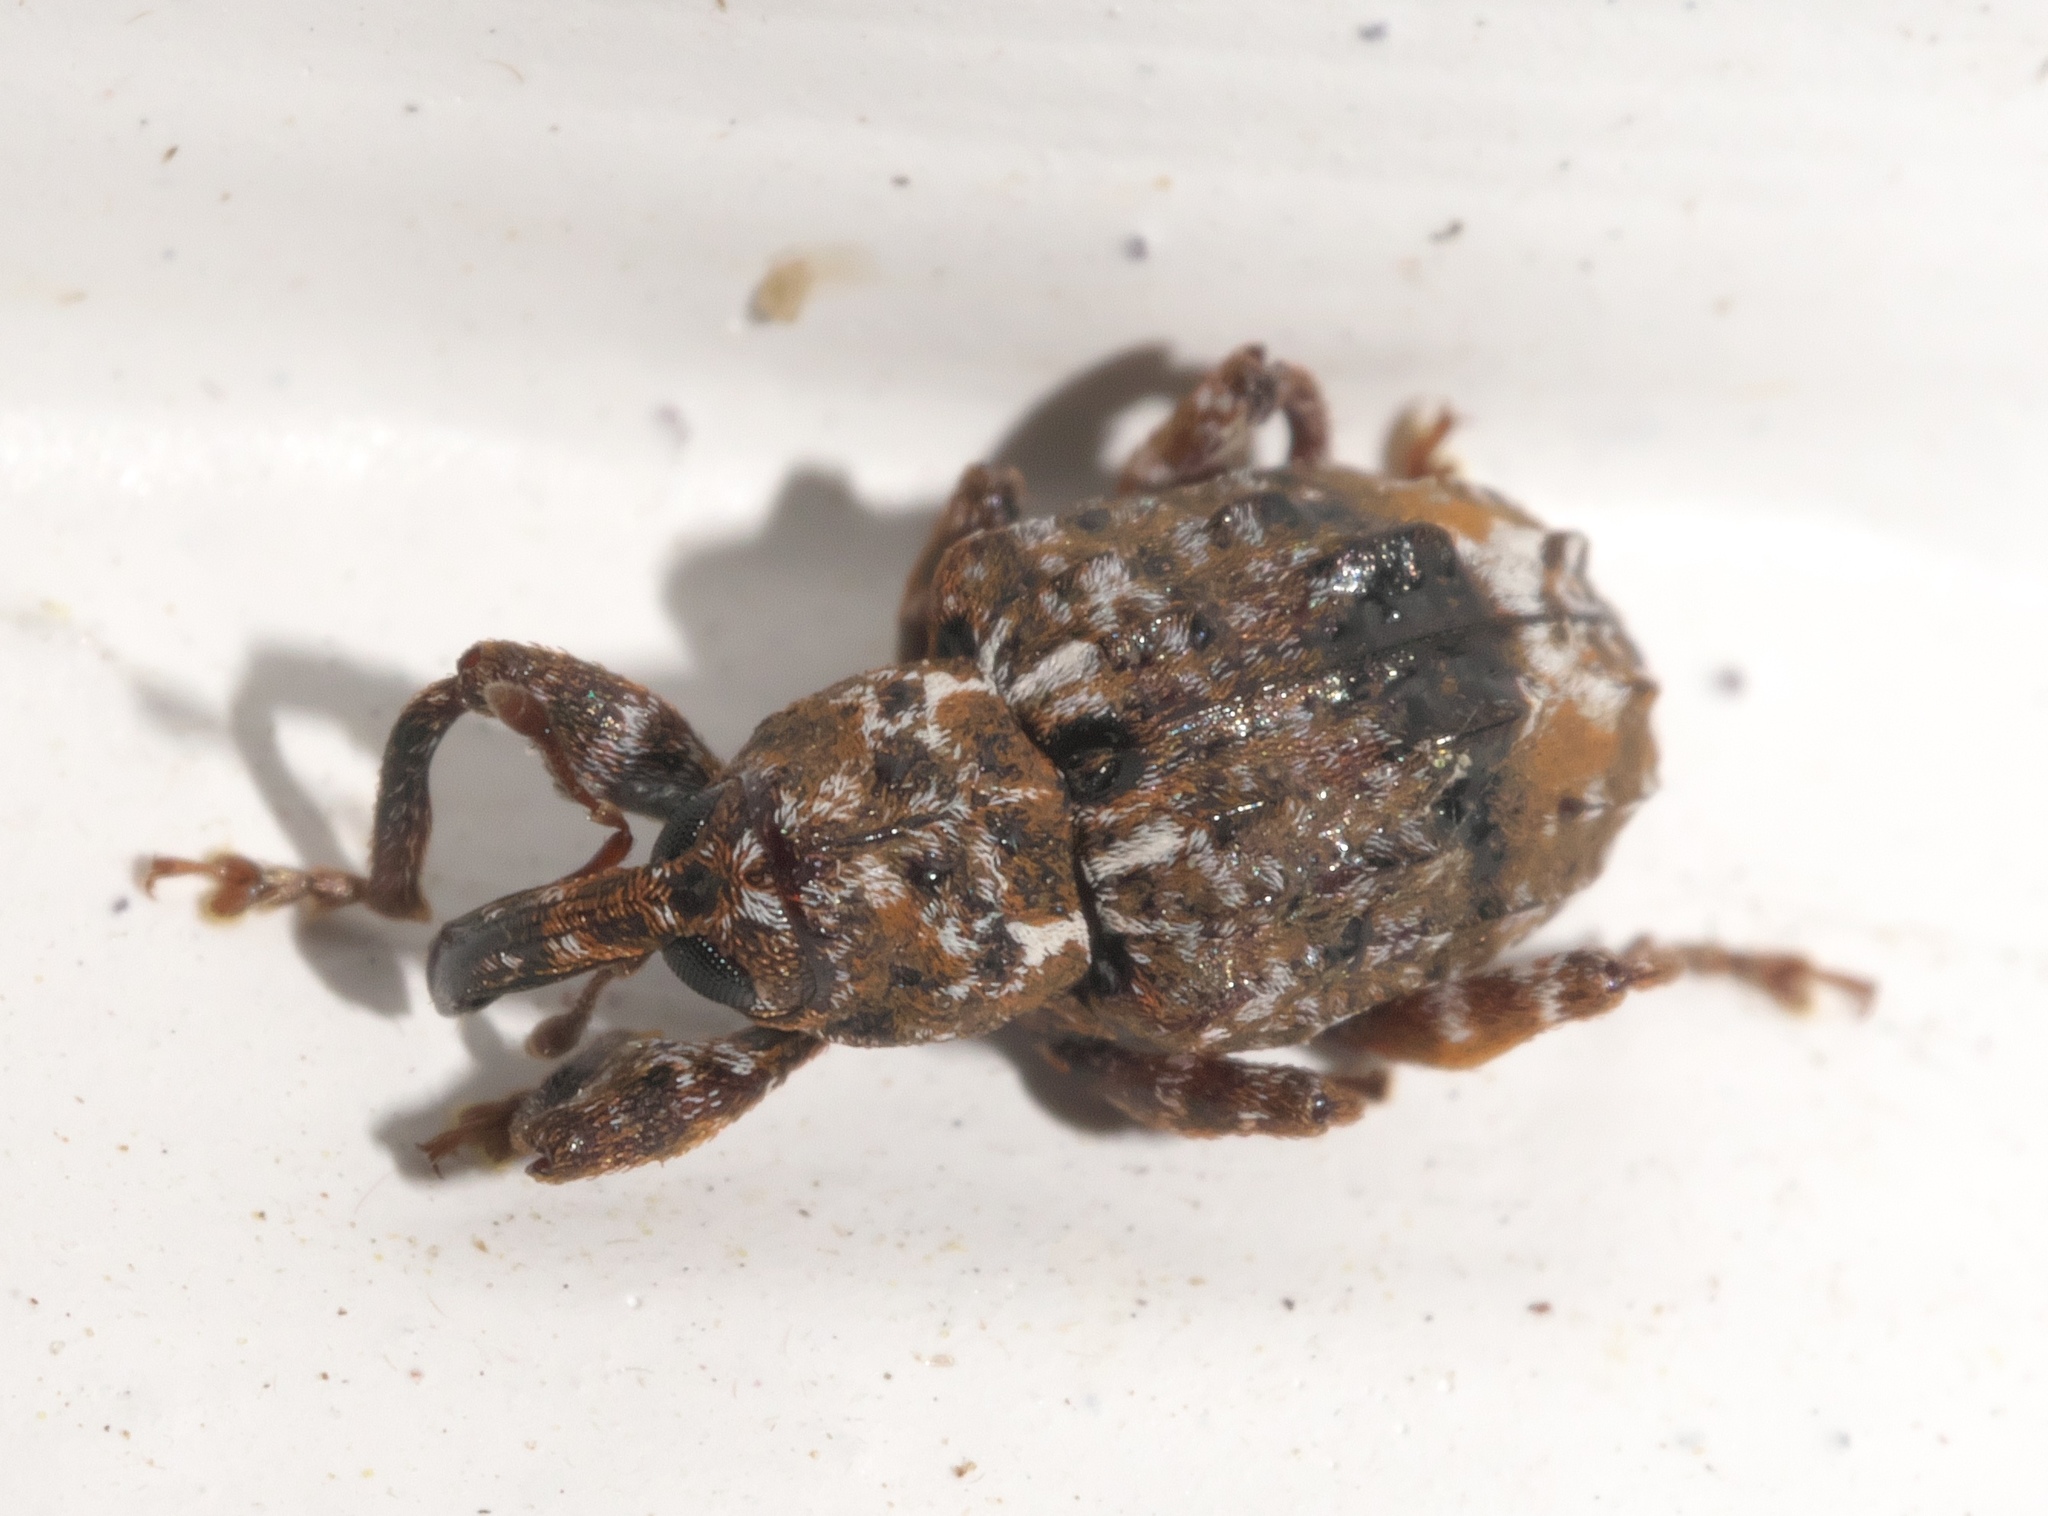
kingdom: Animalia
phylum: Arthropoda
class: Insecta
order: Coleoptera
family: Curculionidae
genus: Conotrachelus
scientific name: Conotrachelus nenuphar
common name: Plum curculio
